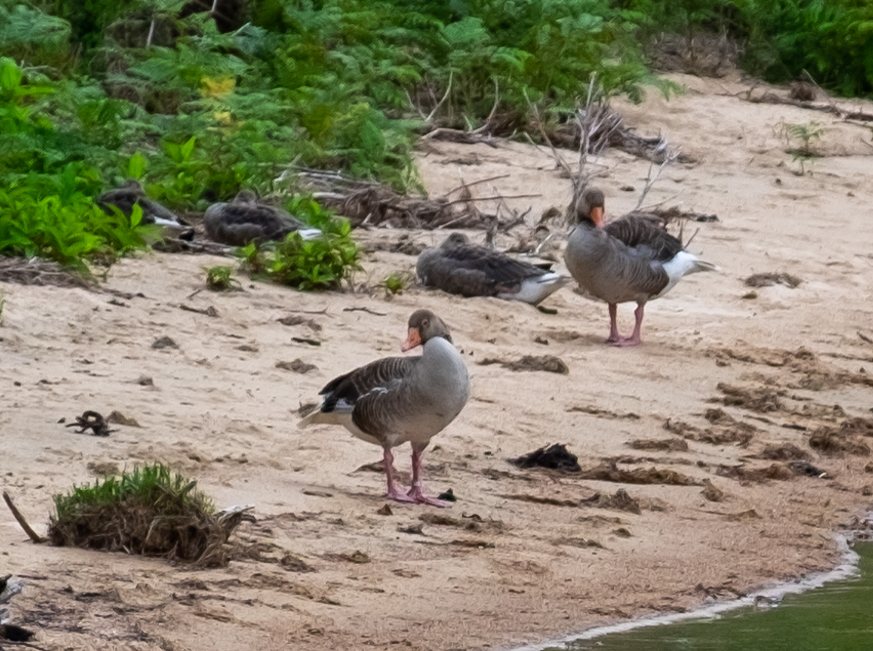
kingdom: Animalia
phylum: Chordata
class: Aves
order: Anseriformes
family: Anatidae
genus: Anser
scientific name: Anser anser
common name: Greylag goose
